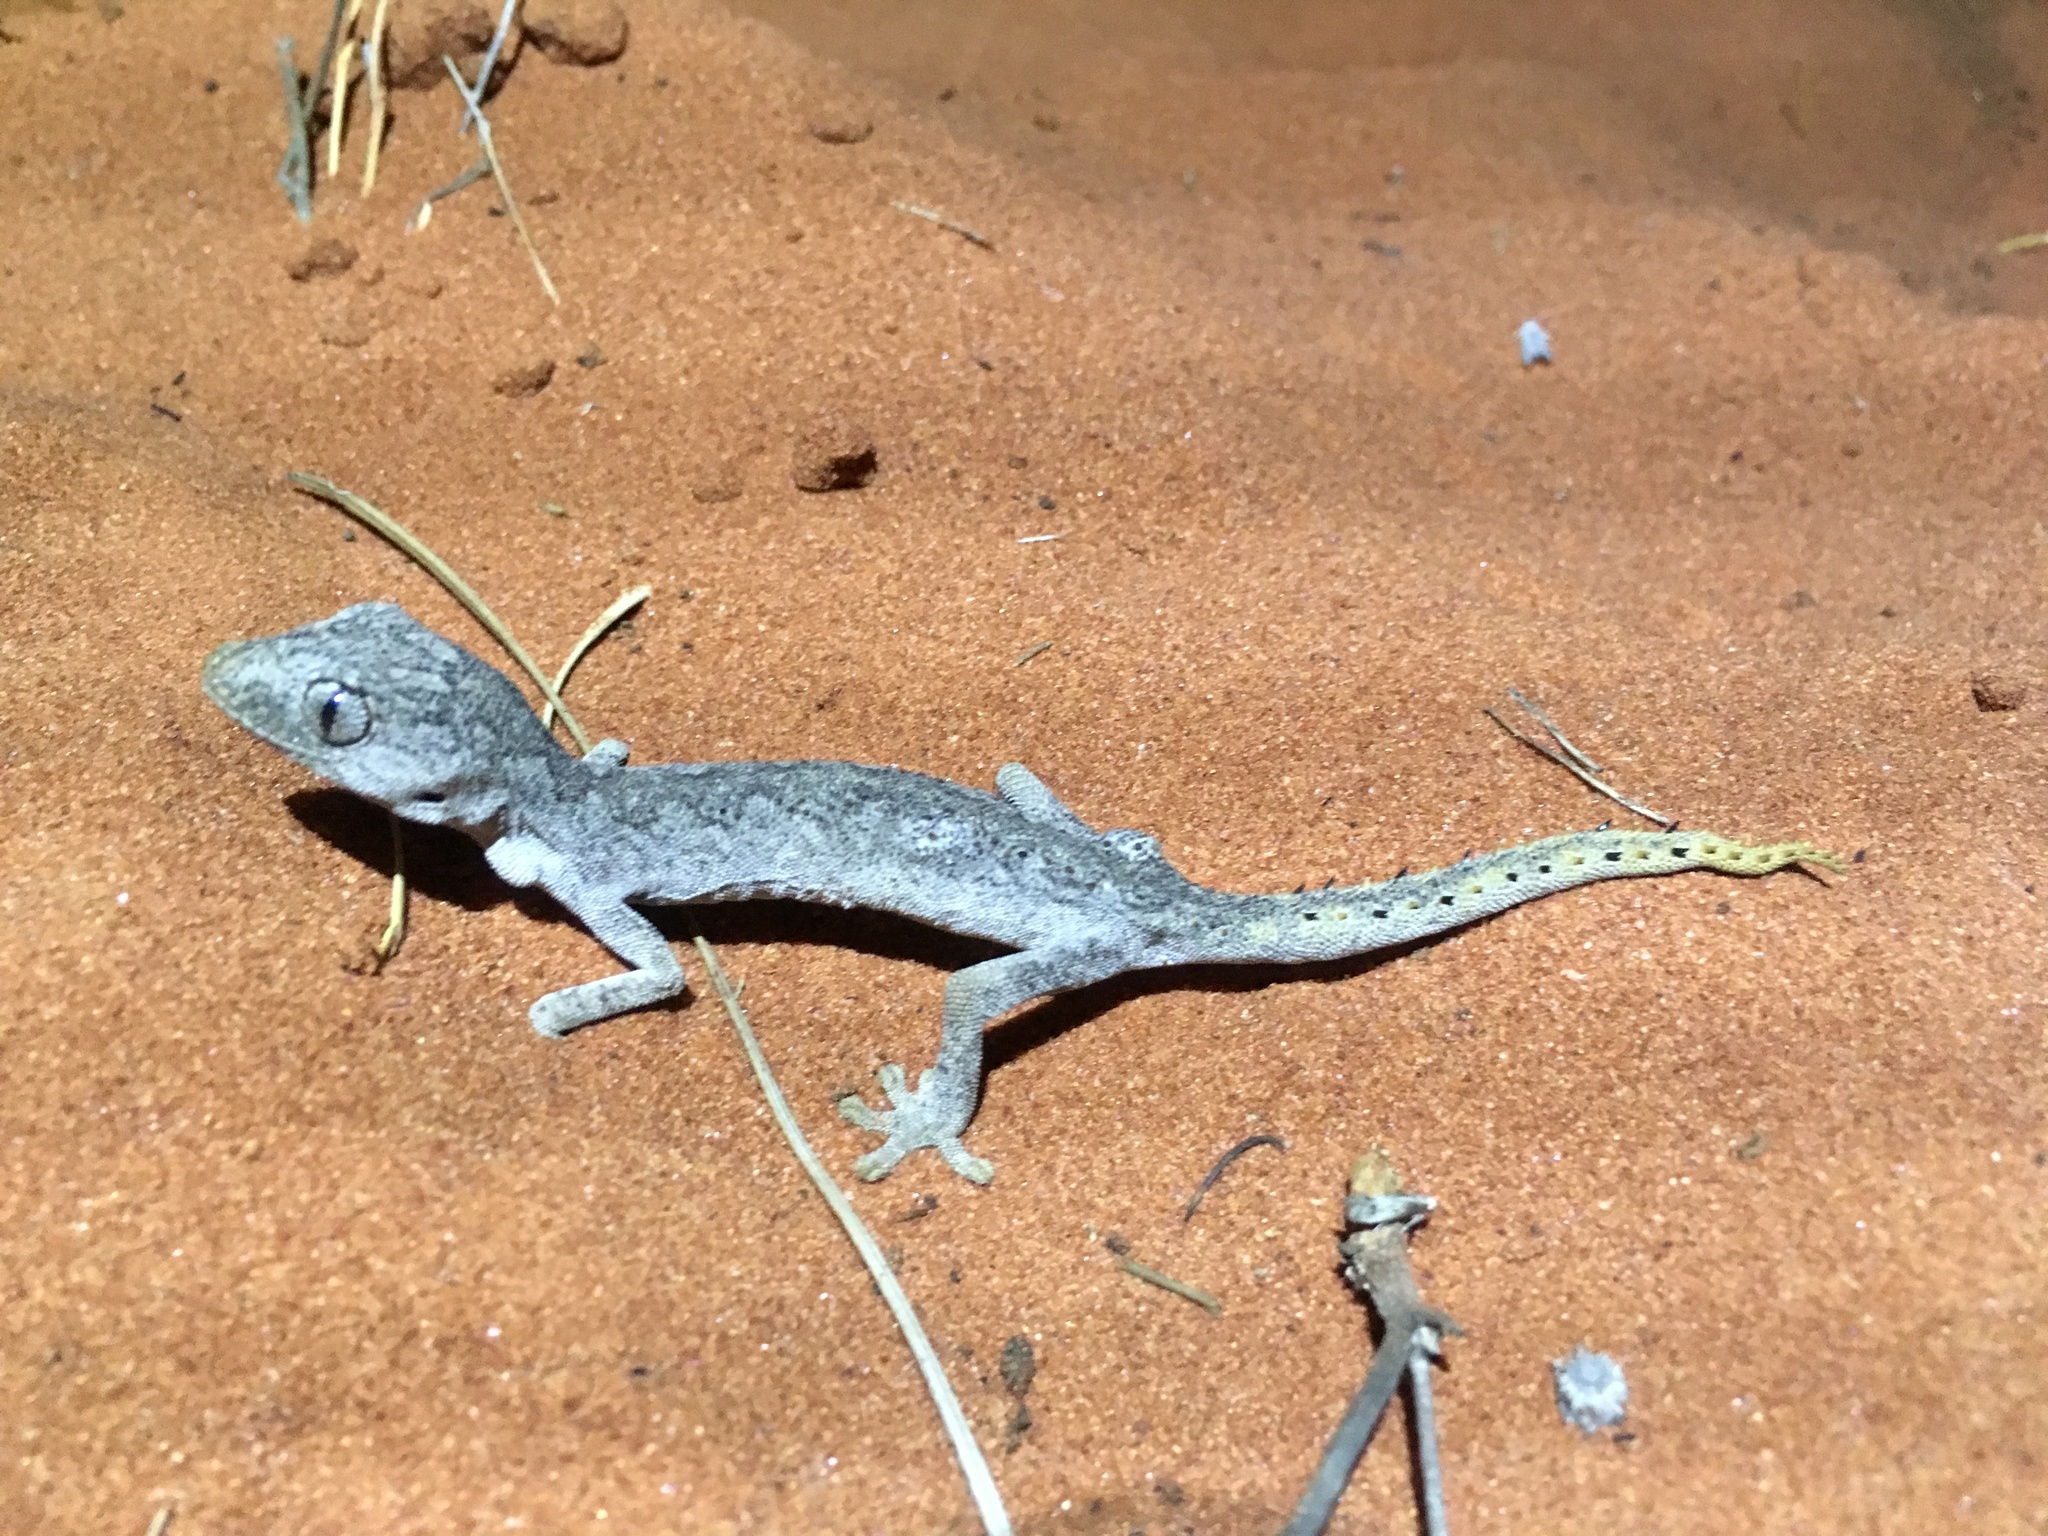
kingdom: Animalia
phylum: Chordata
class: Squamata
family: Diplodactylidae
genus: Strophurus
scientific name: Strophurus ciliaris
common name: Northern spiny-tailed gecko
